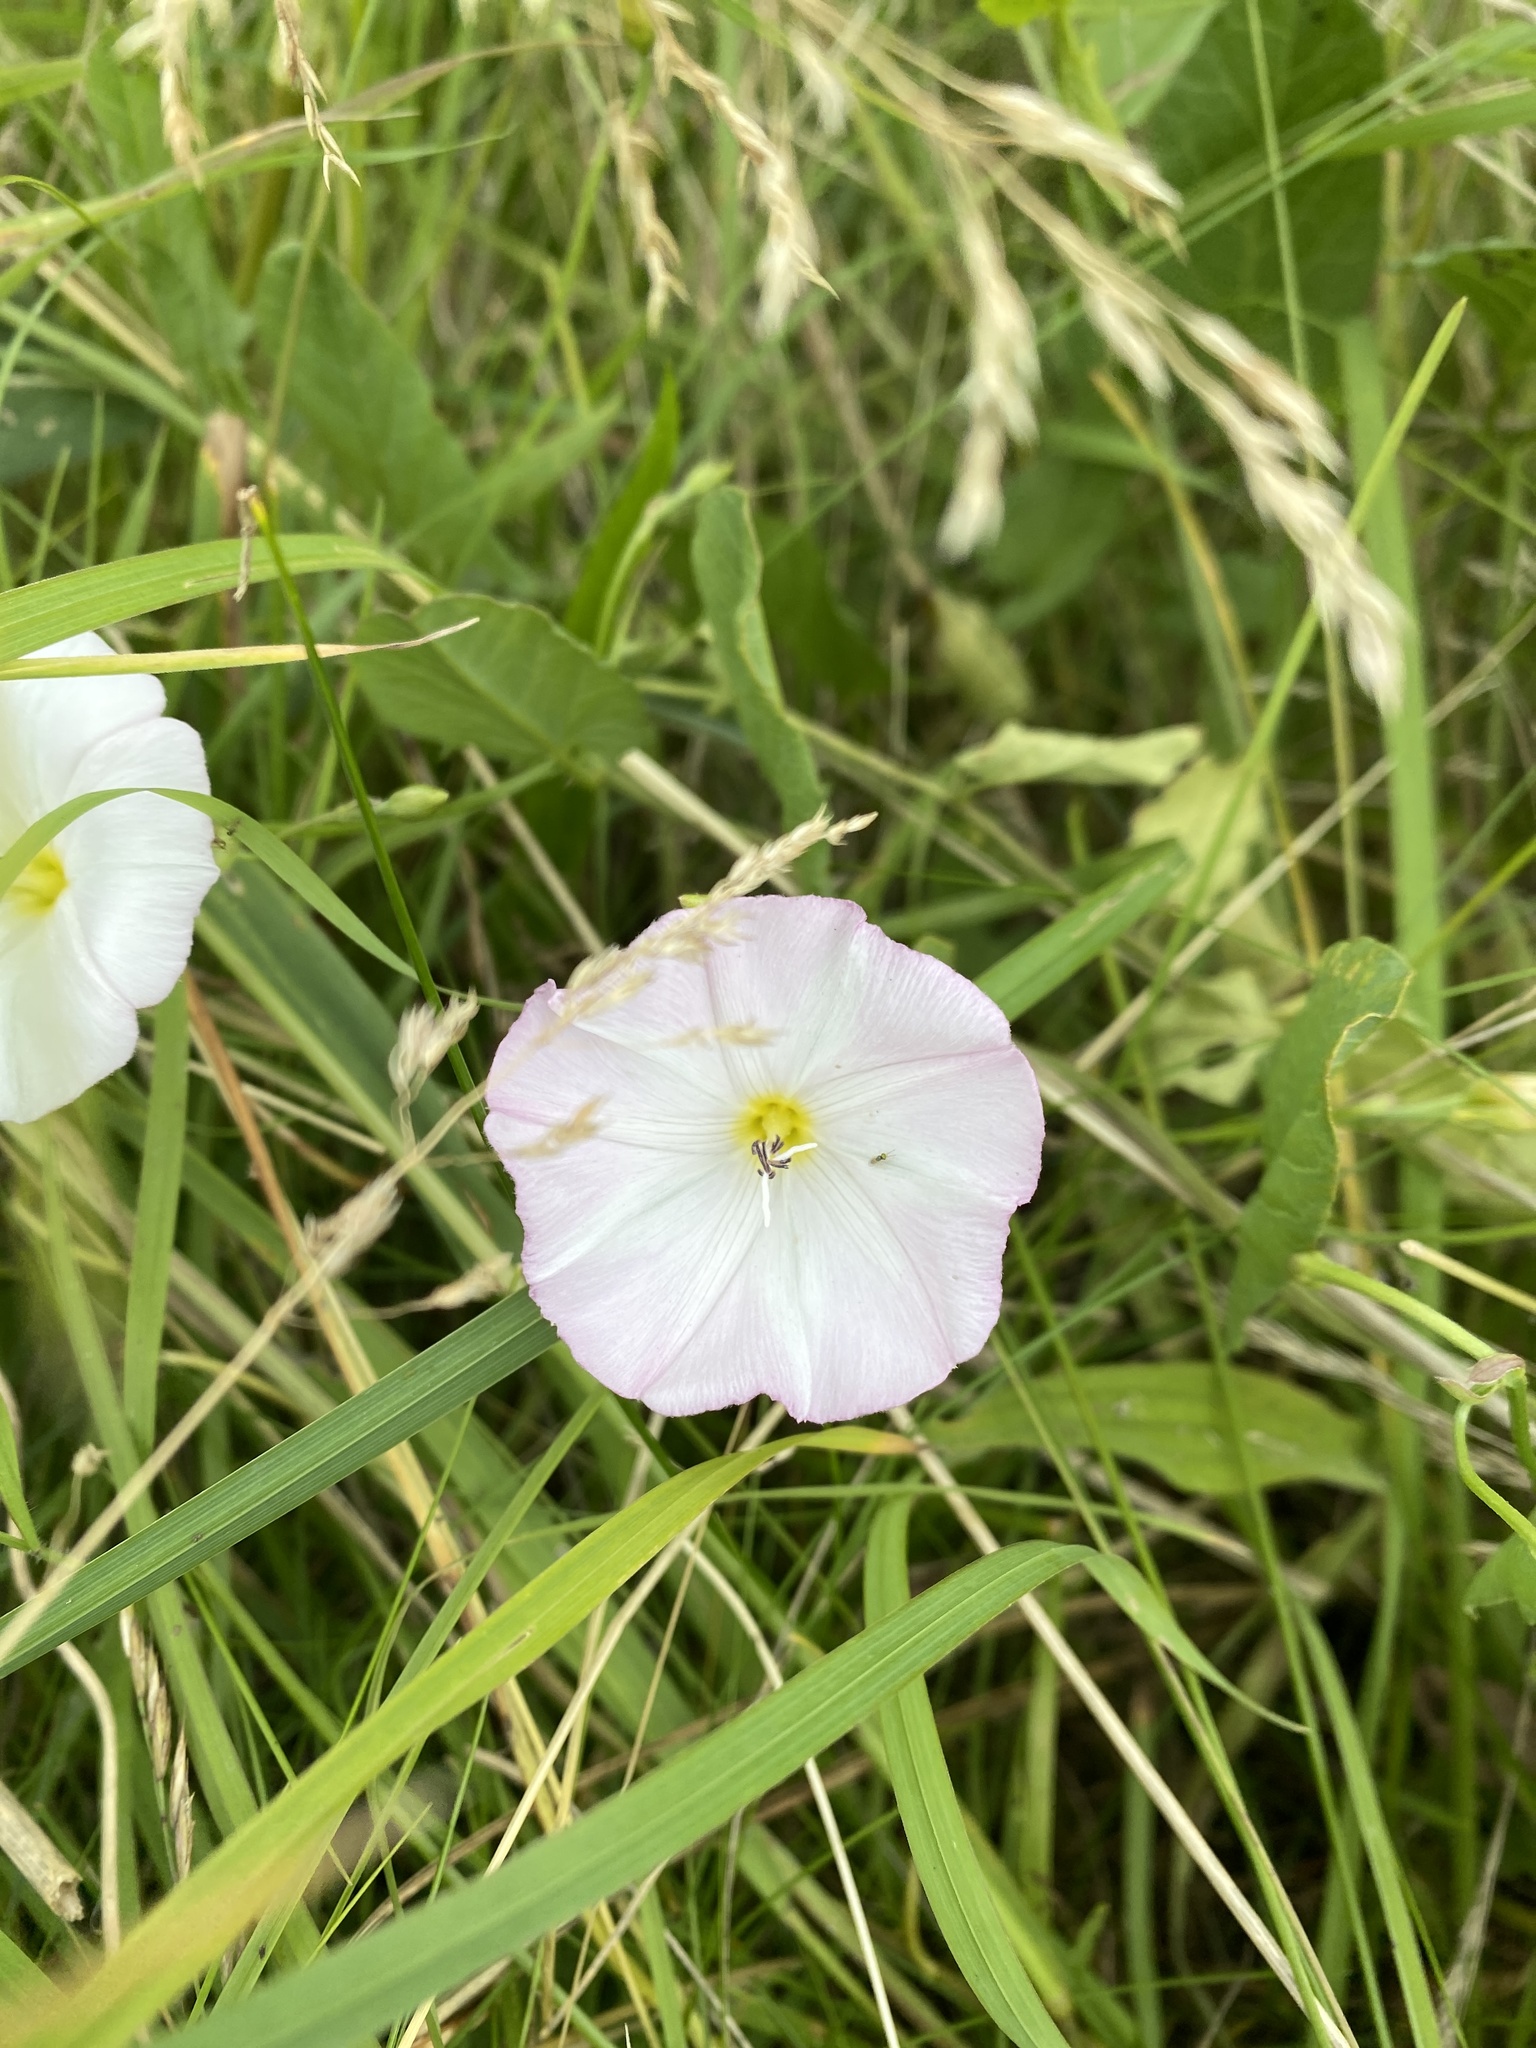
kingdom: Plantae
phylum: Tracheophyta
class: Magnoliopsida
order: Solanales
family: Convolvulaceae
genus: Convolvulus
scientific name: Convolvulus arvensis
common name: Field bindweed
